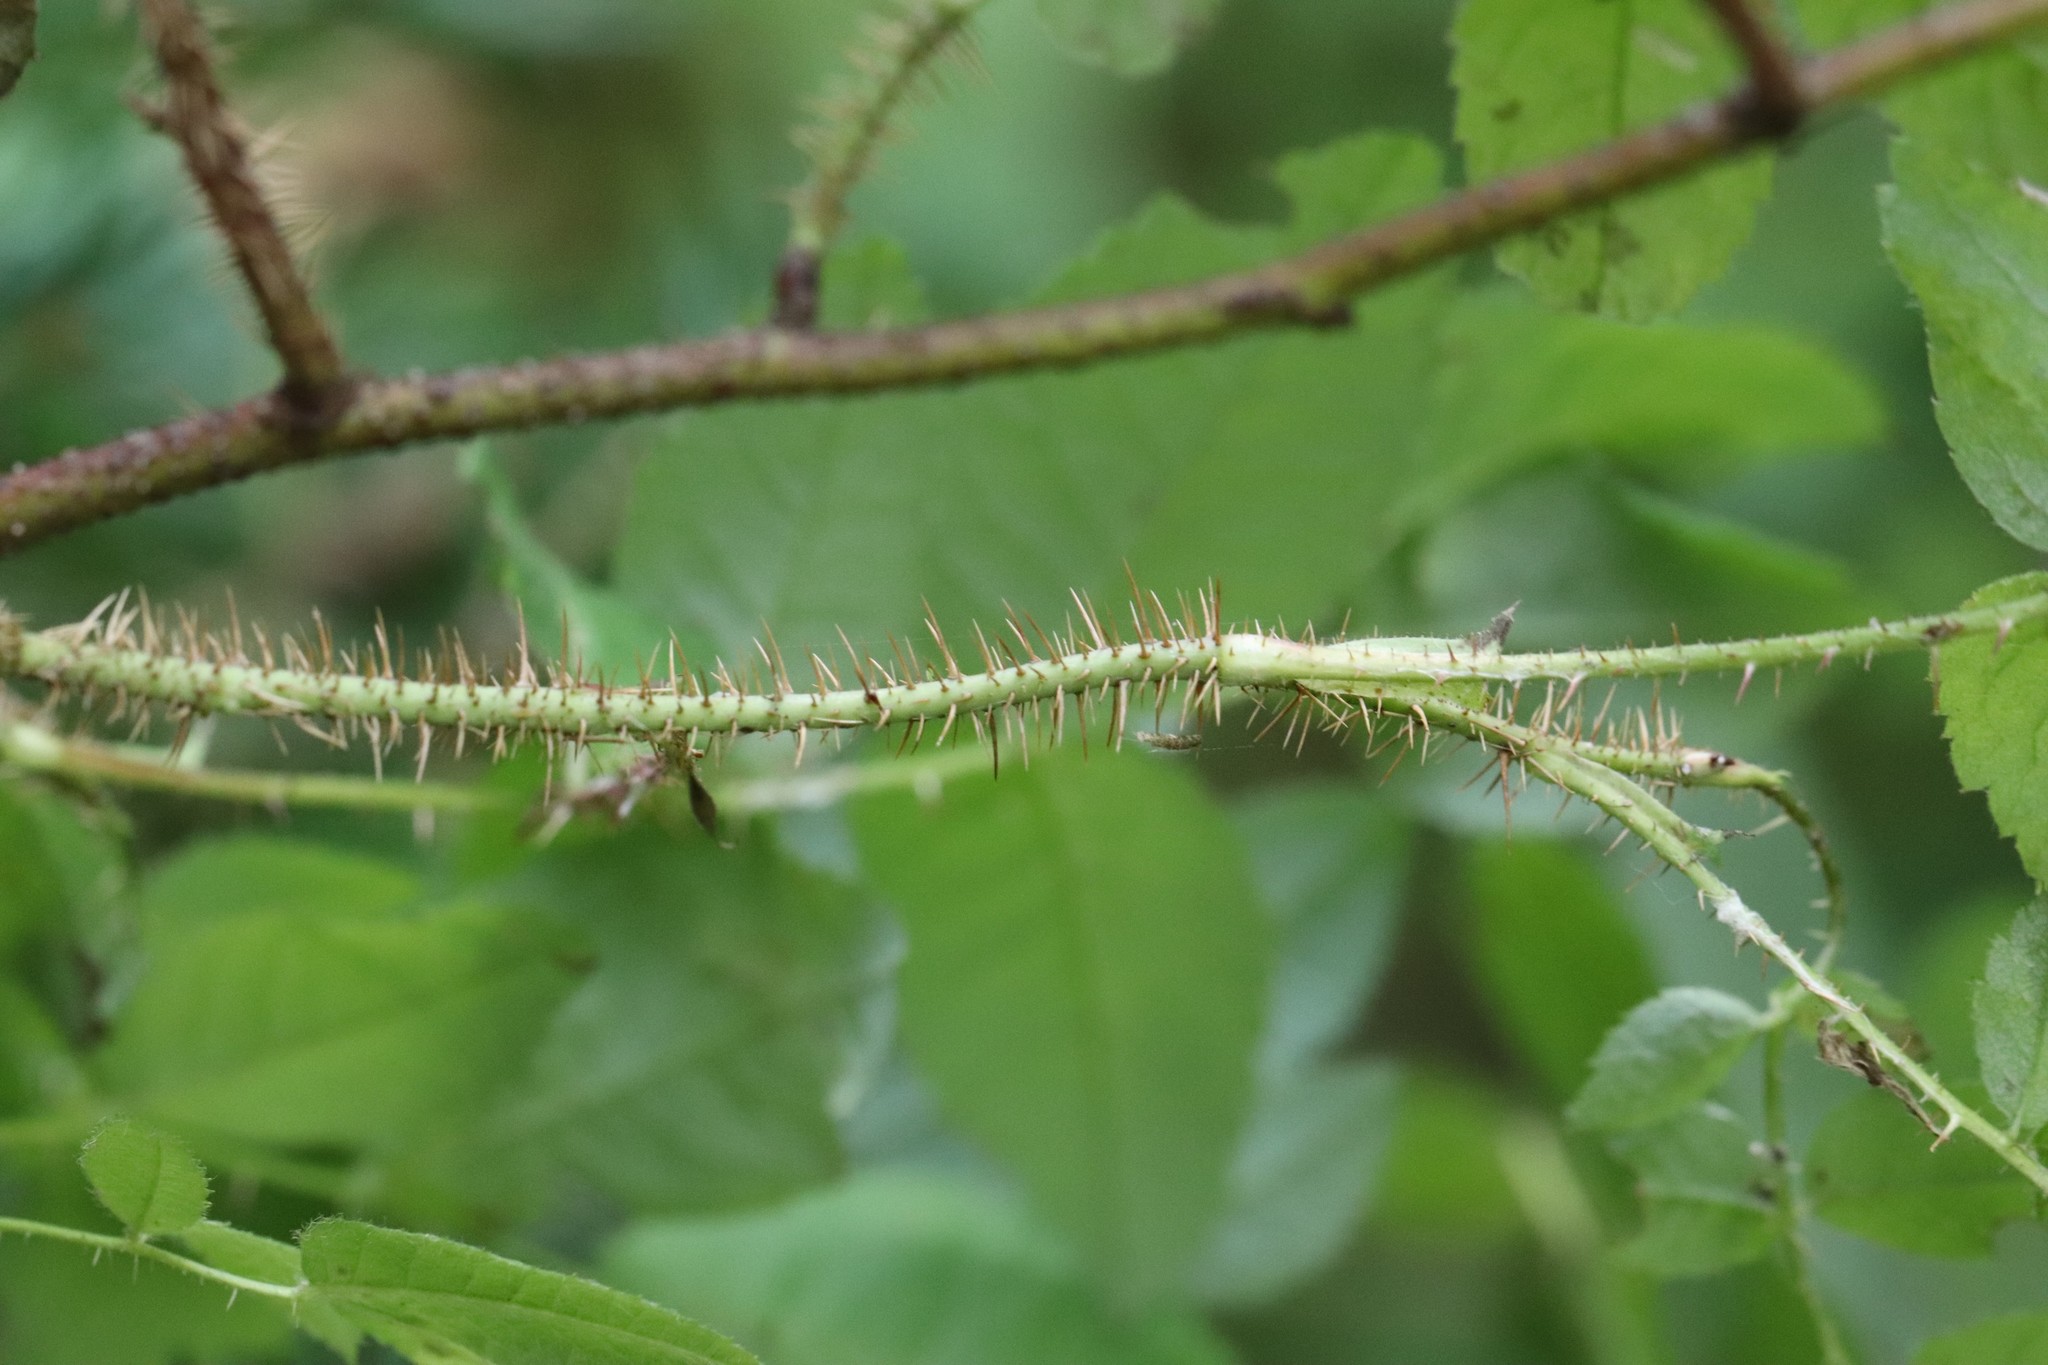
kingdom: Plantae
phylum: Tracheophyta
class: Magnoliopsida
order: Rosales
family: Rosaceae
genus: Rosa
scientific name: Rosa acicularis
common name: Prickly rose
